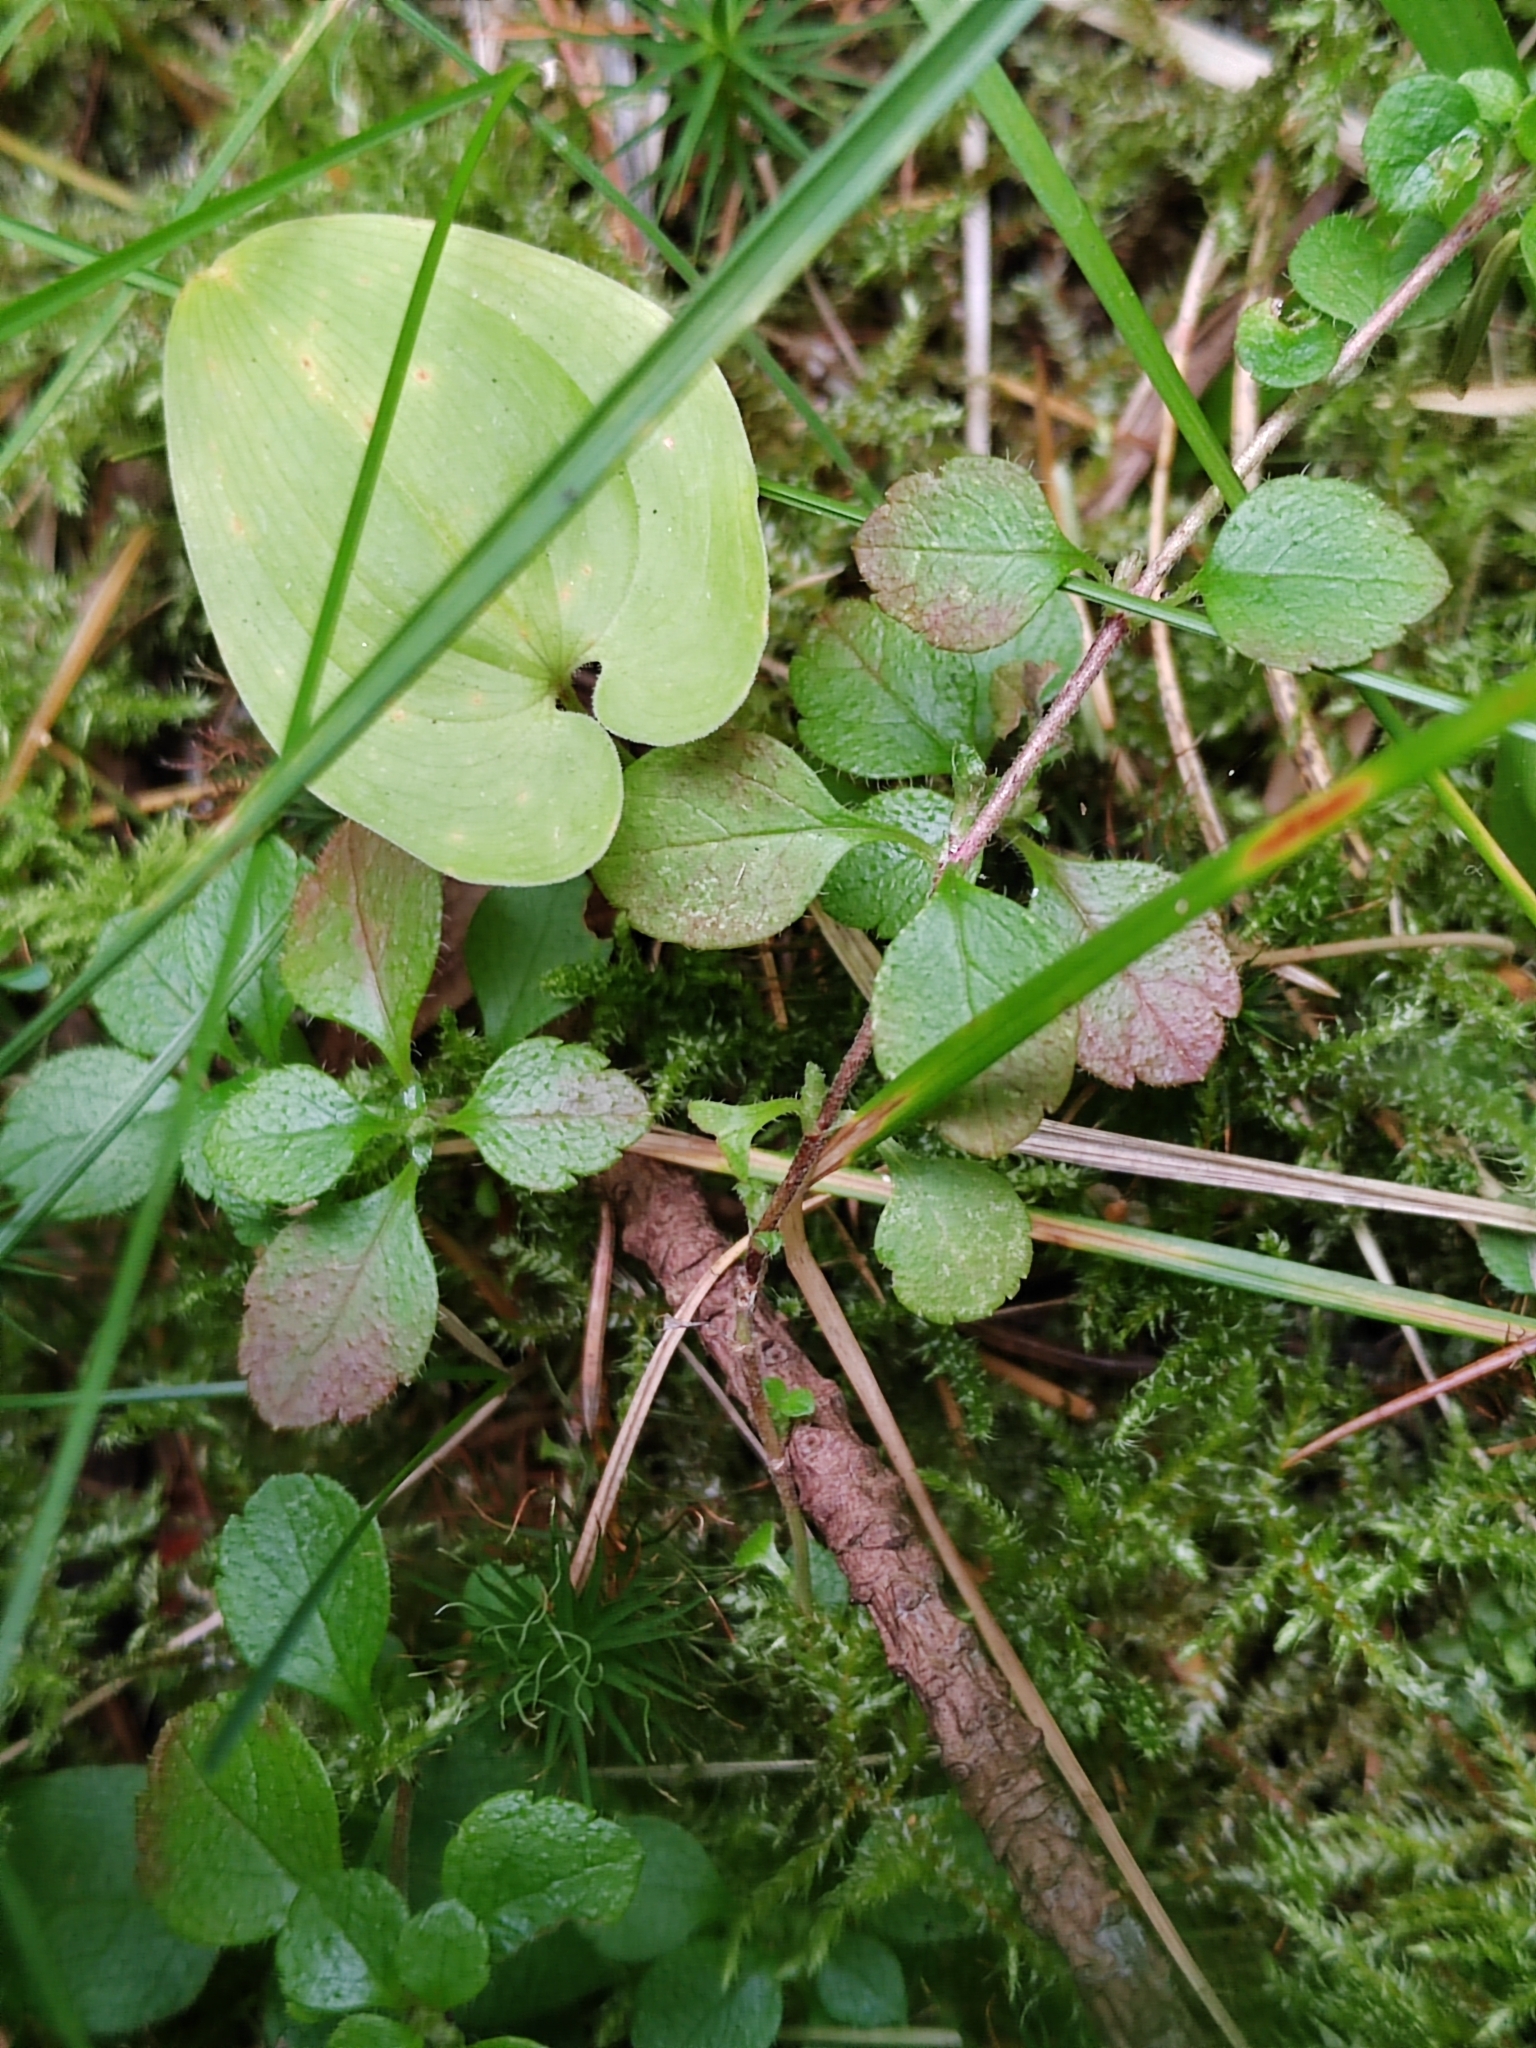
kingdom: Plantae
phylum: Tracheophyta
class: Magnoliopsida
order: Dipsacales
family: Caprifoliaceae
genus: Linnaea
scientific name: Linnaea borealis
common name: Twinflower
